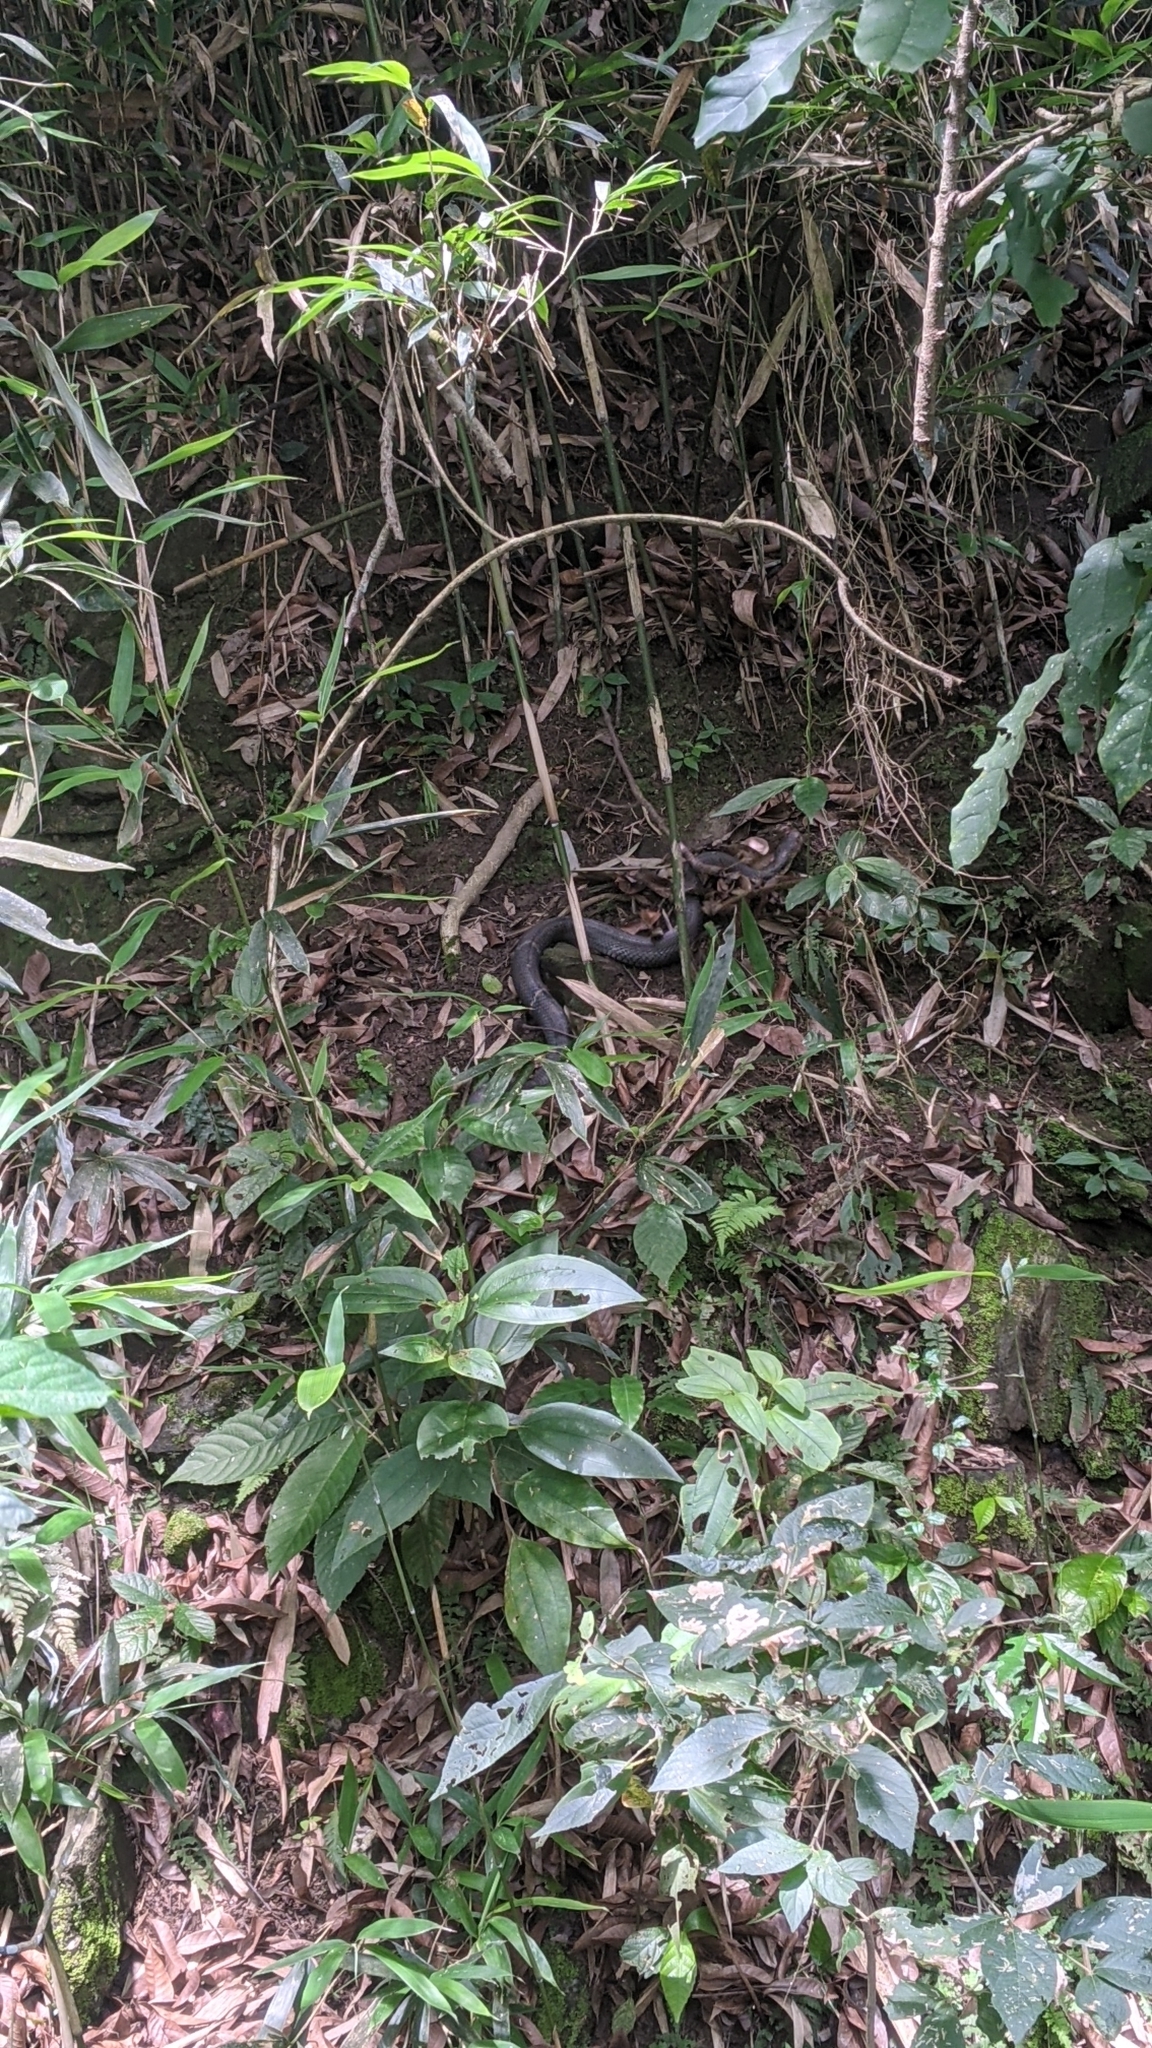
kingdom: Animalia
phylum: Chordata
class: Squamata
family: Elapidae
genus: Naja
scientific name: Naja atra
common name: Chinese cobra
